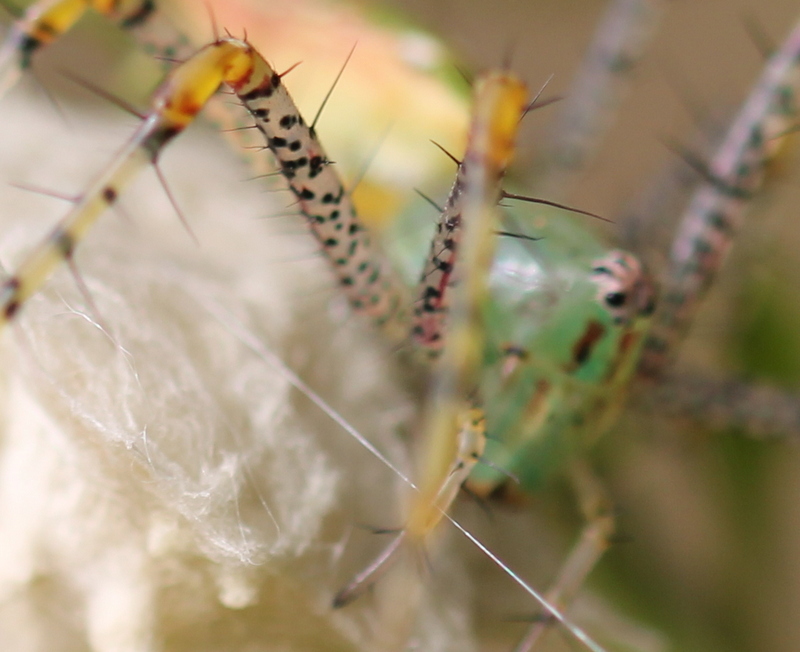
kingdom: Animalia
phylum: Arthropoda
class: Arachnida
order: Araneae
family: Oxyopidae
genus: Peucetia
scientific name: Peucetia viridans
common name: Lynx spiders
